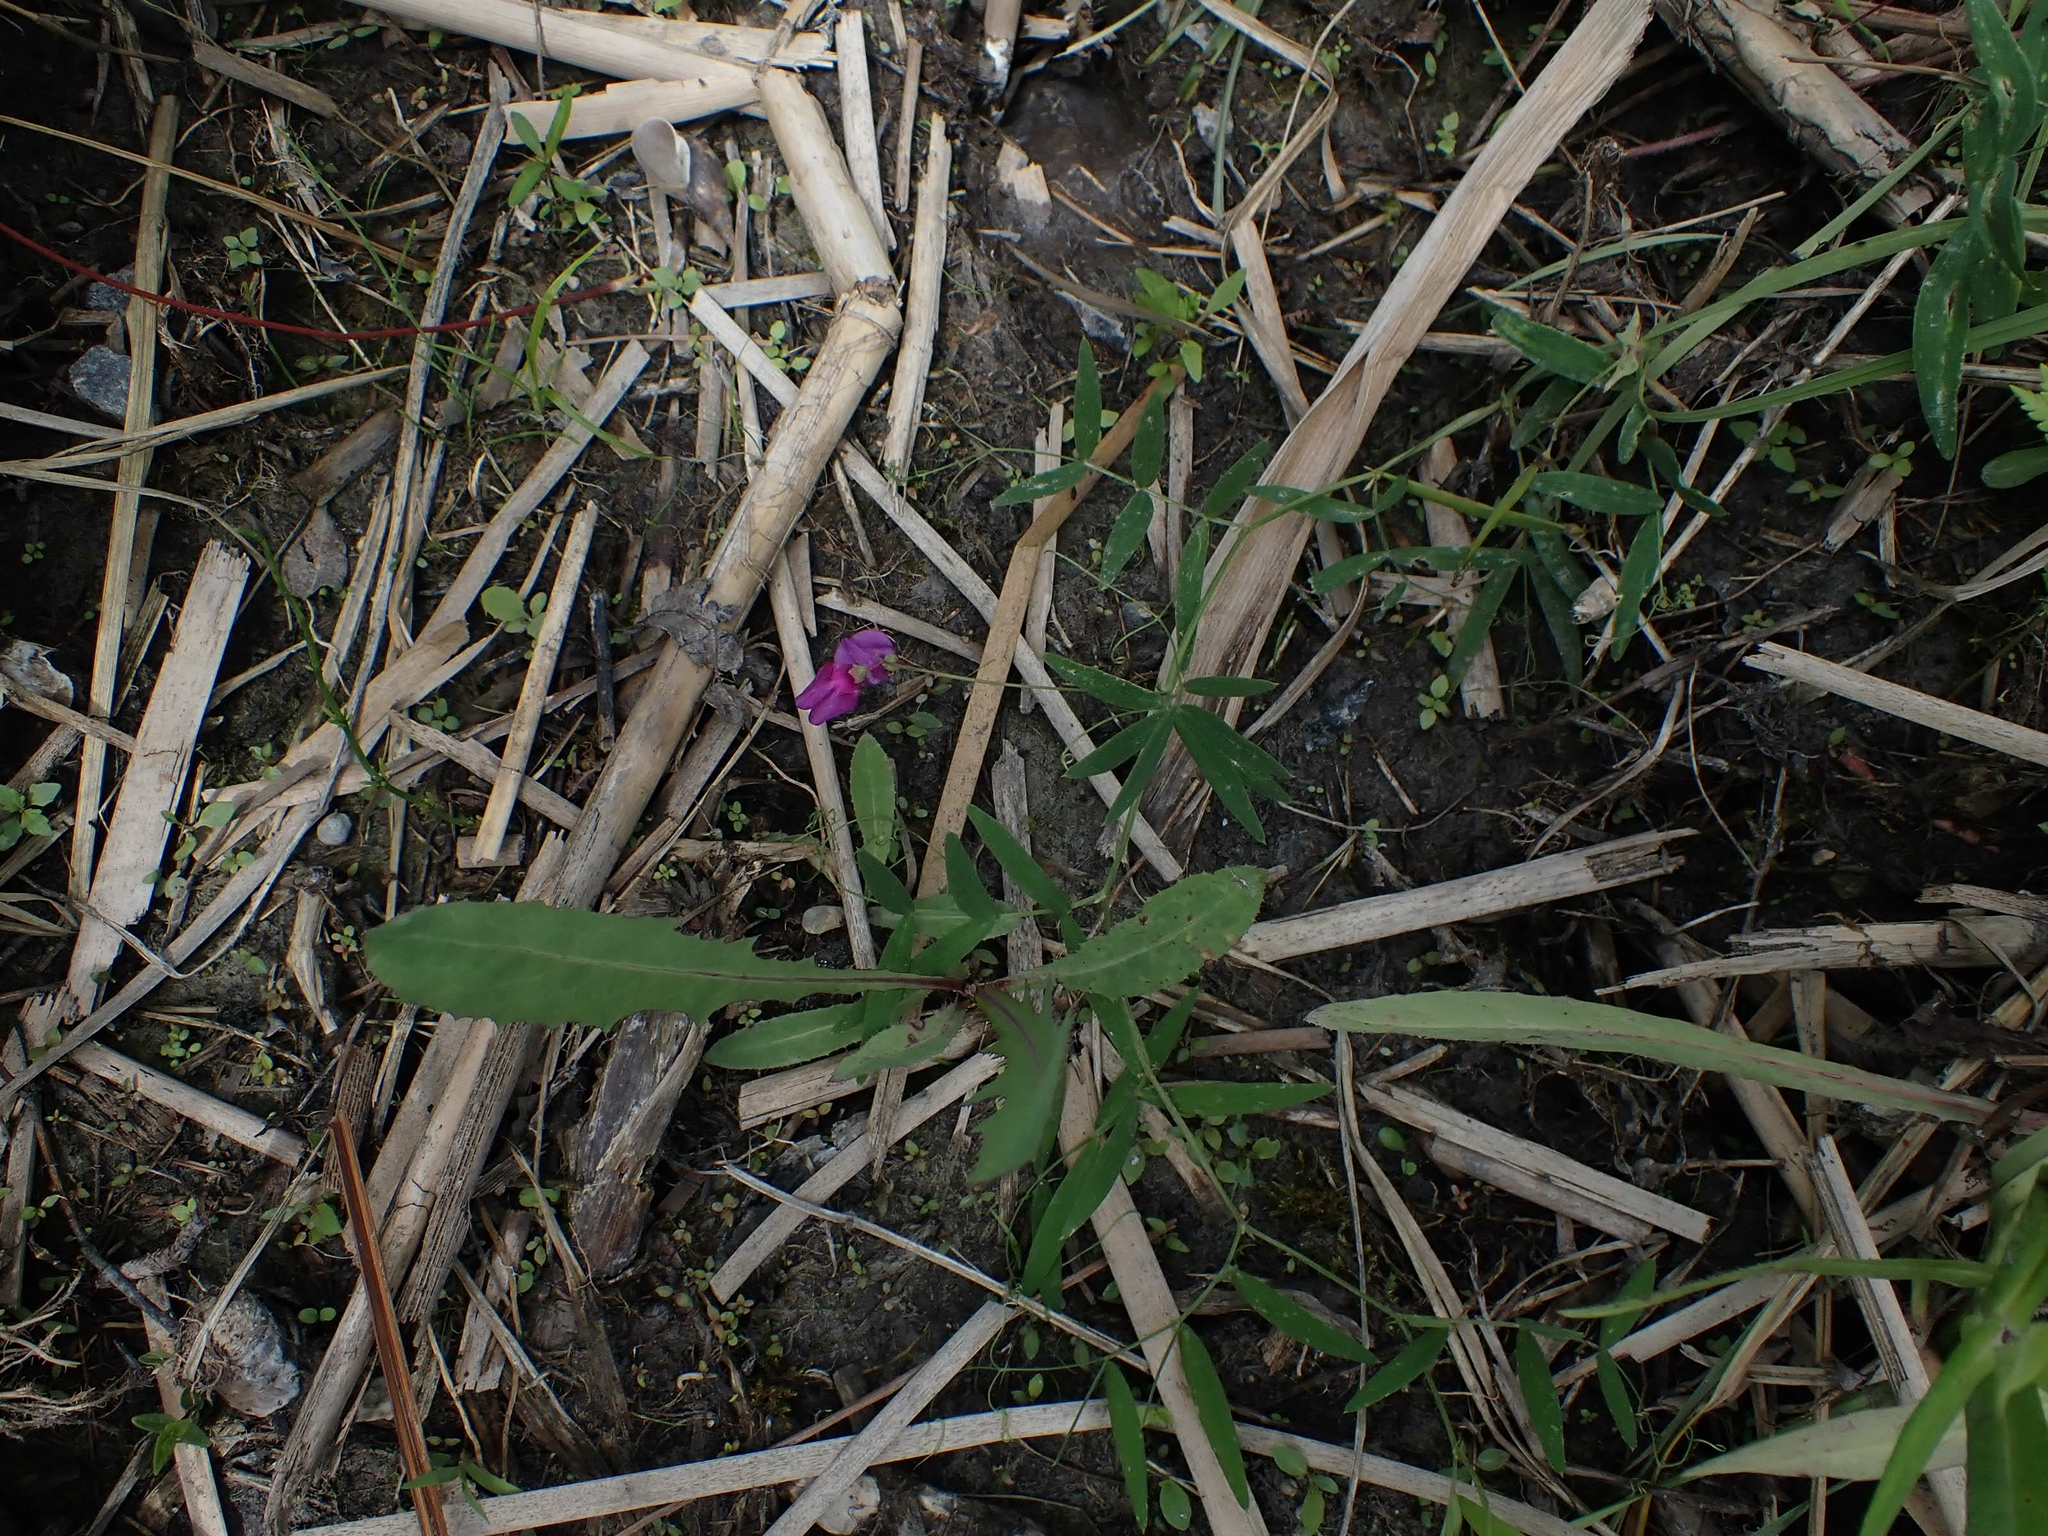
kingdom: Plantae
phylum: Tracheophyta
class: Magnoliopsida
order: Fabales
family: Fabaceae
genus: Lathyrus
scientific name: Lathyrus palustris
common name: Marsh pea
